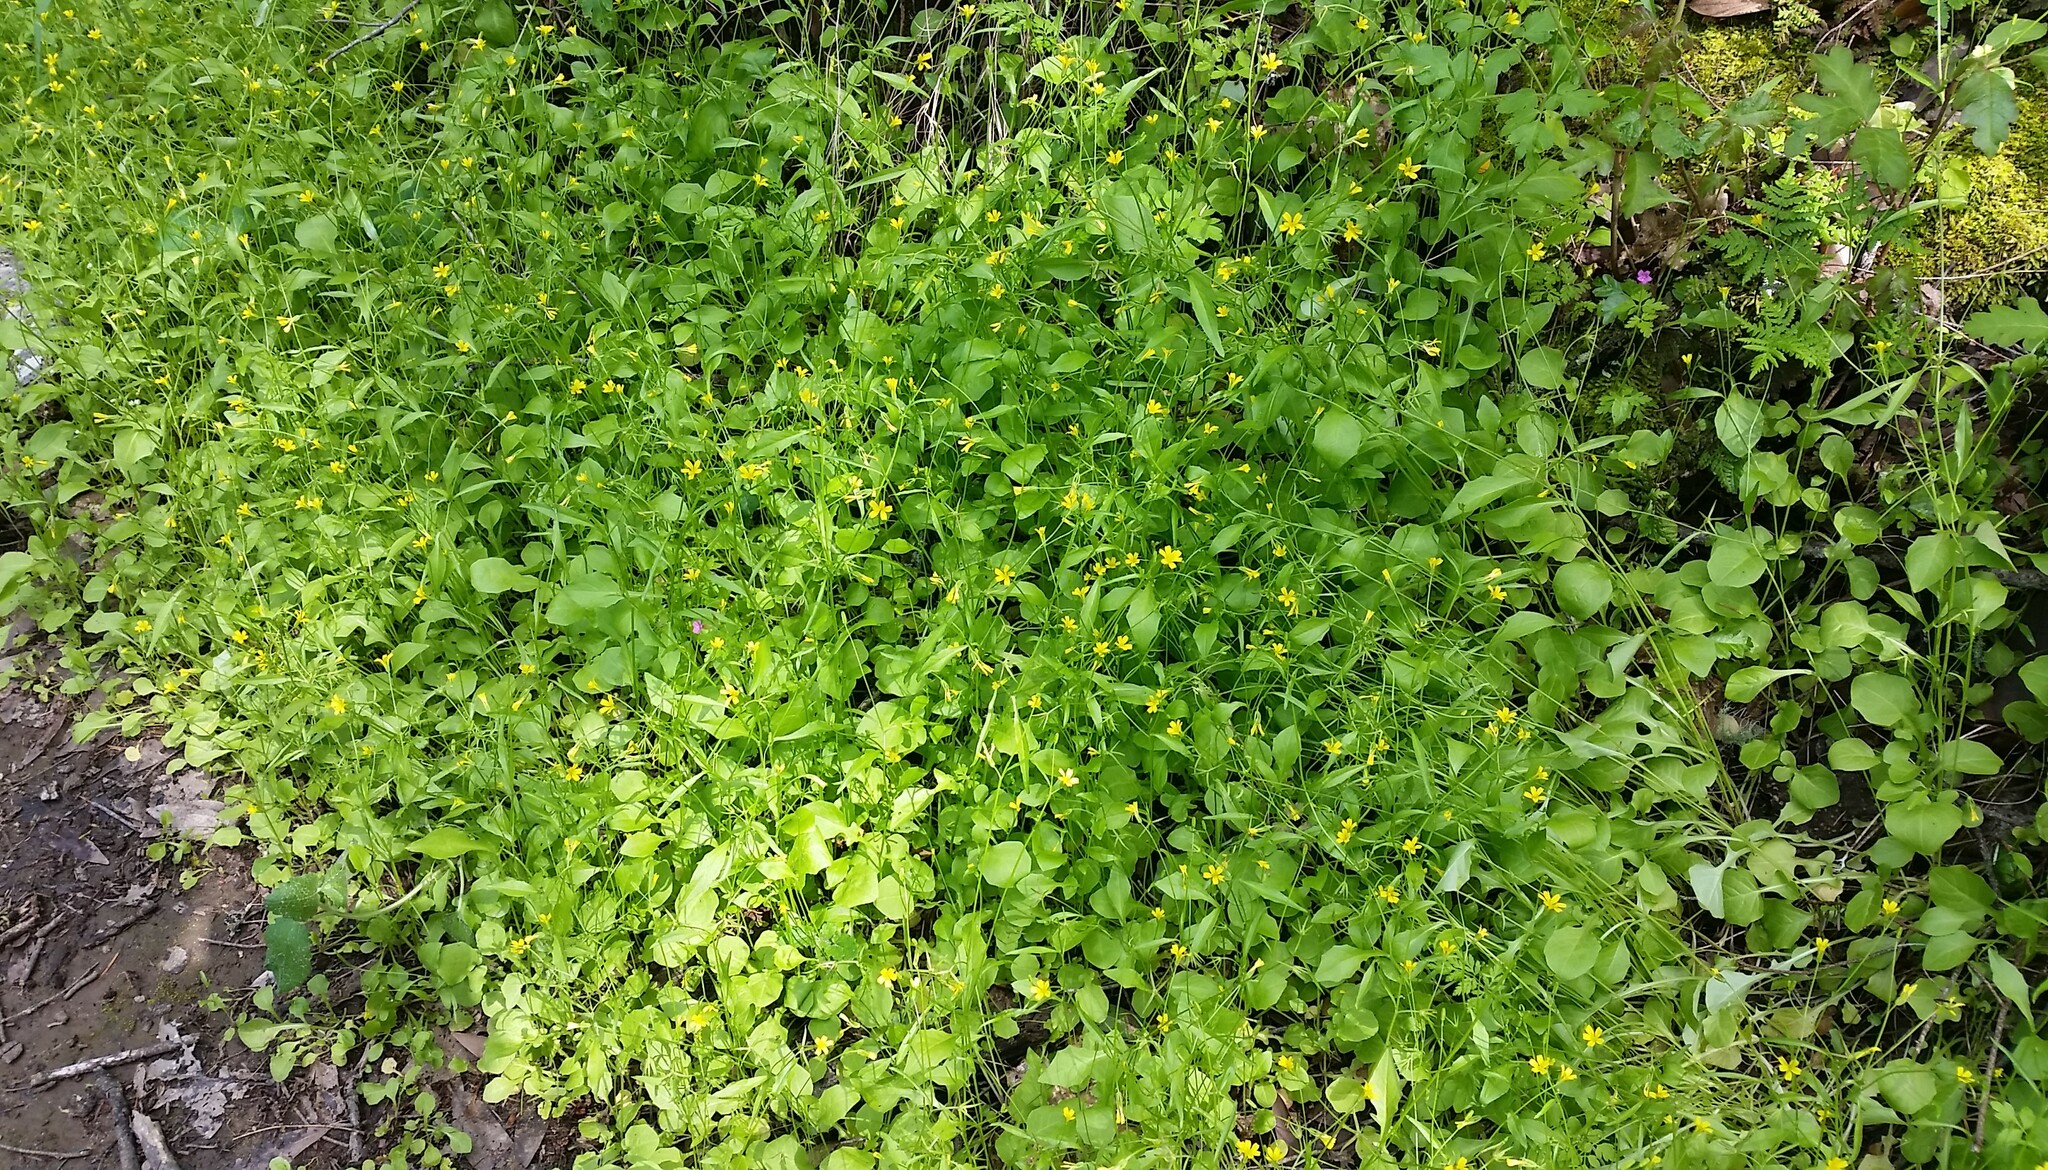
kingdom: Plantae
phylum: Tracheophyta
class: Magnoliopsida
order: Asterales
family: Asteraceae
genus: Rhagadiolus
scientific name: Rhagadiolus stellatus
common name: Star hawkbit
